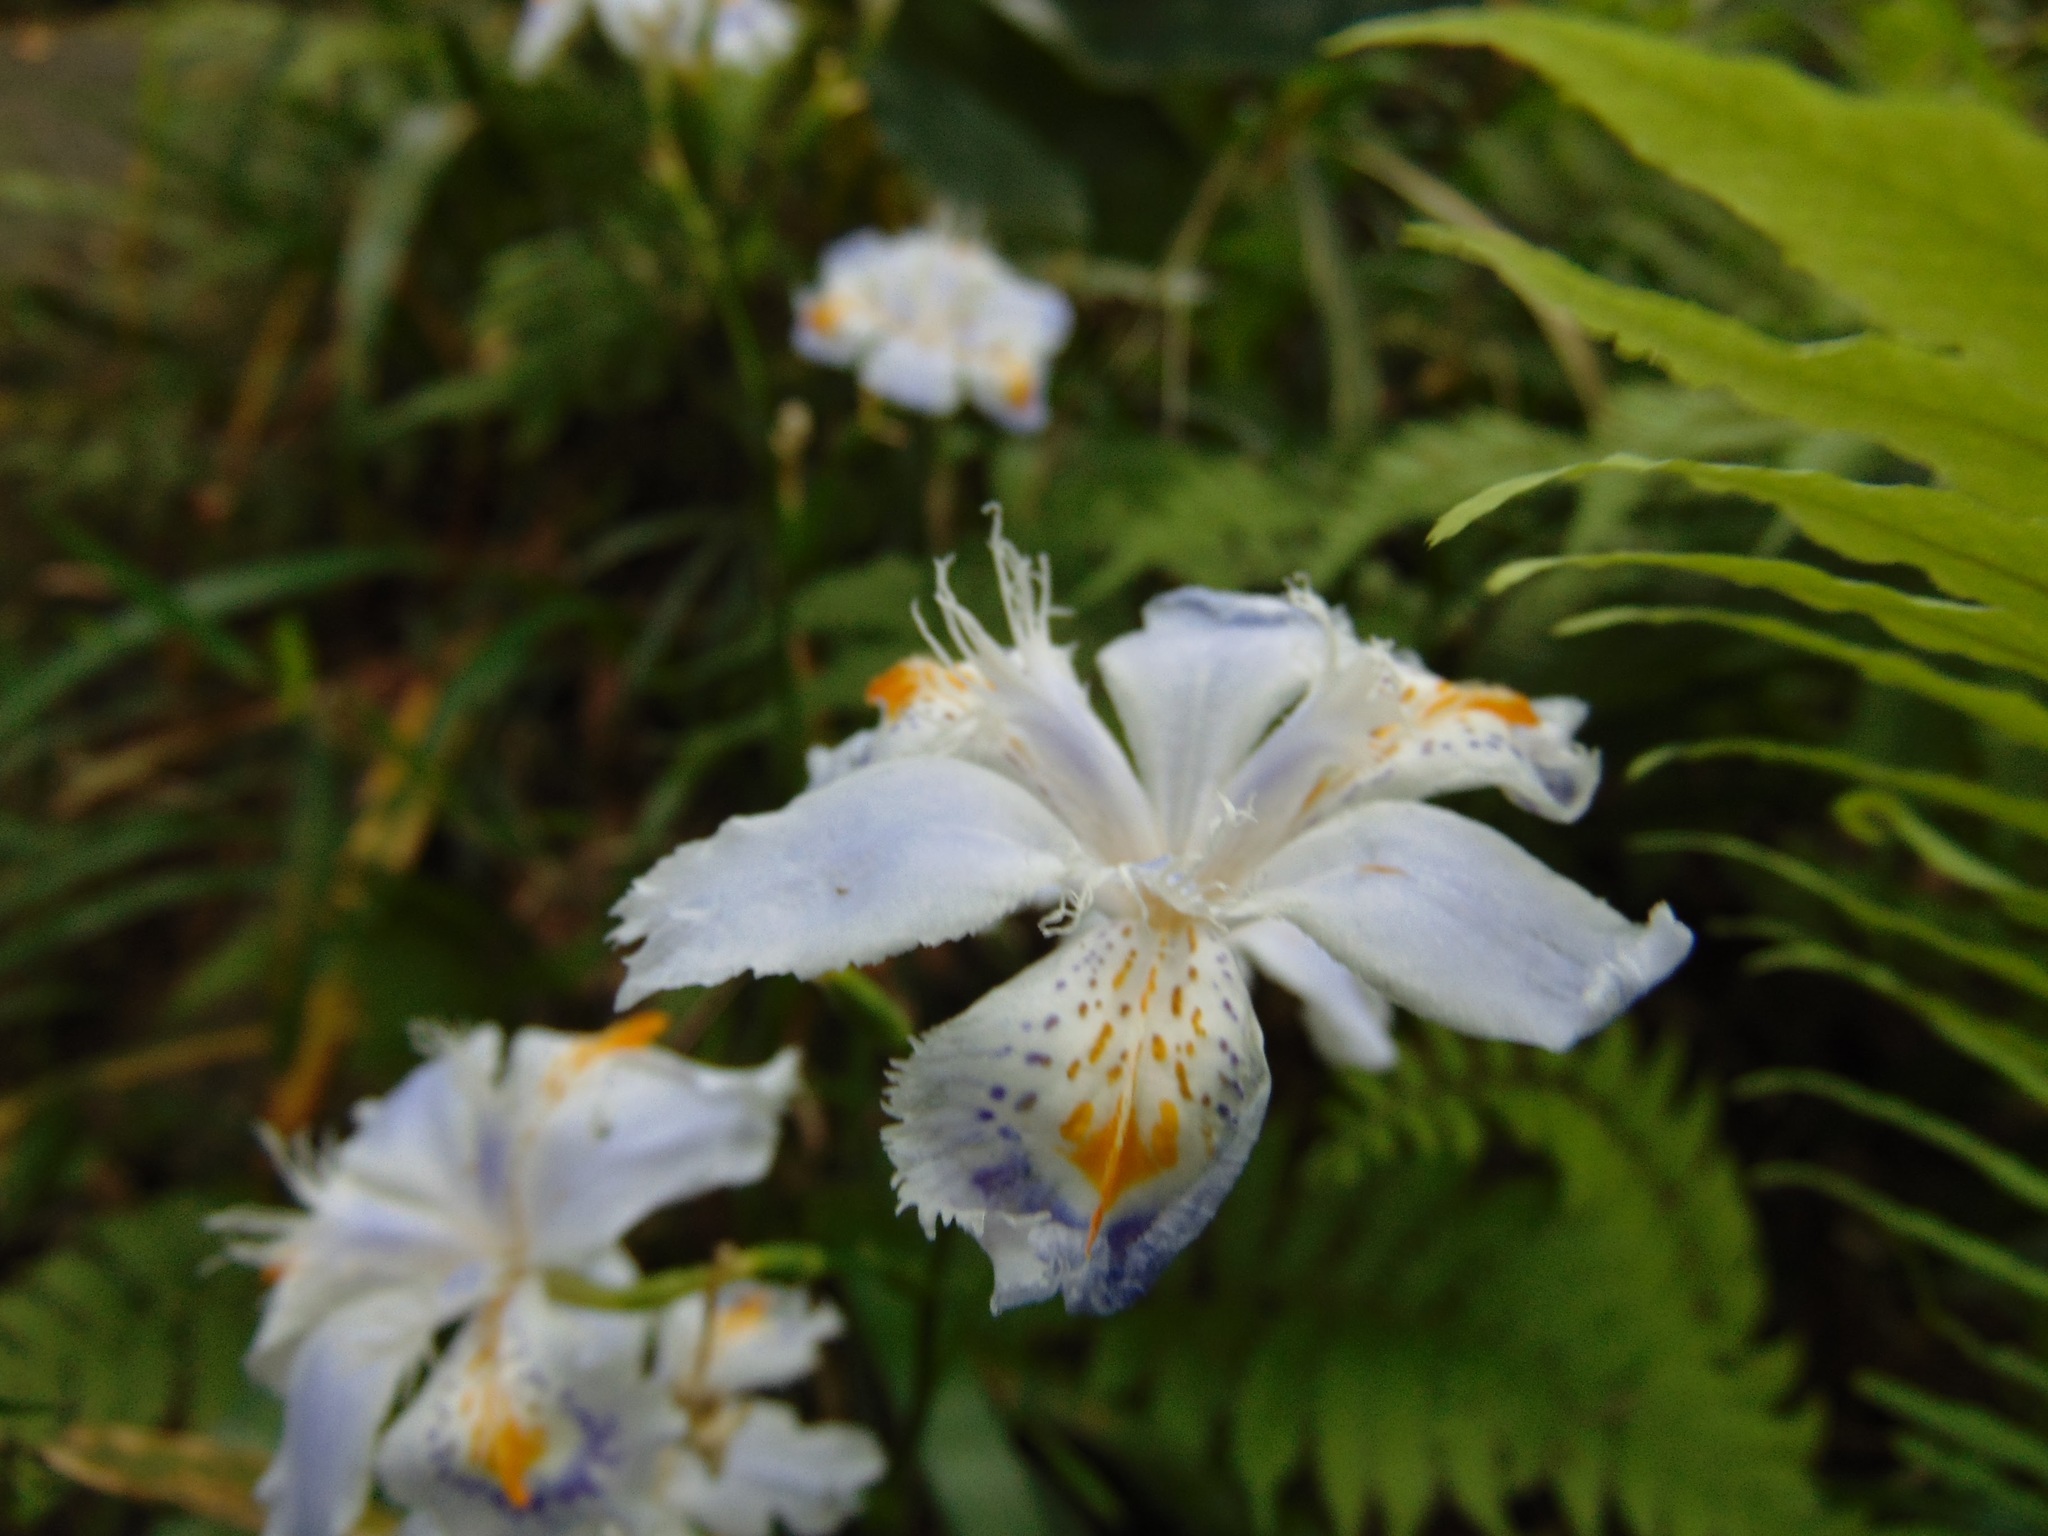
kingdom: Plantae
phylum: Tracheophyta
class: Liliopsida
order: Asparagales
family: Iridaceae
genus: Iris
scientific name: Iris japonica
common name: Butterfly-flower
